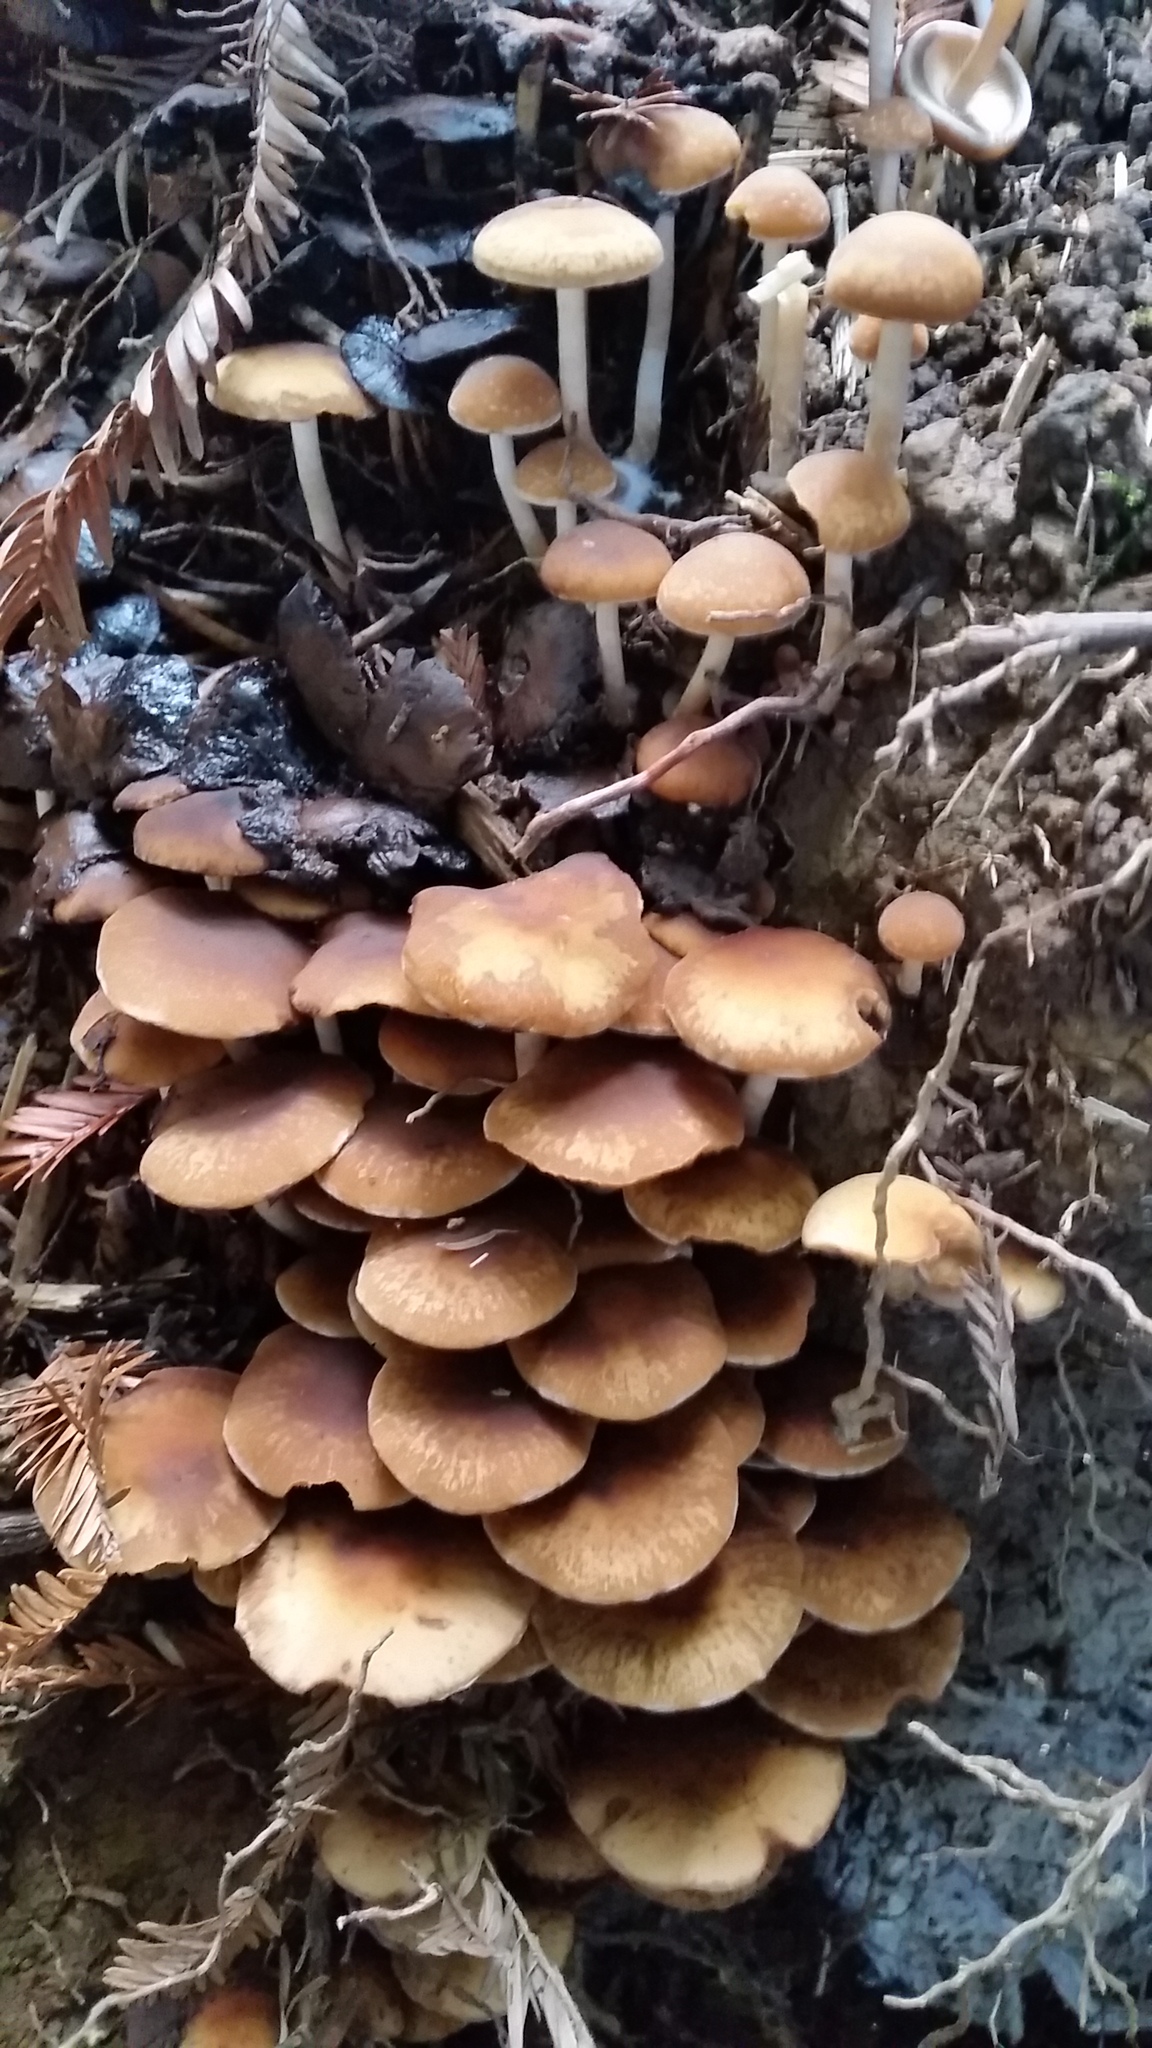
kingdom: Fungi
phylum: Basidiomycota
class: Agaricomycetes
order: Agaricales
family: Psathyrellaceae
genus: Psathyrella
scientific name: Psathyrella piluliformis
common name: Common stump brittlestem
